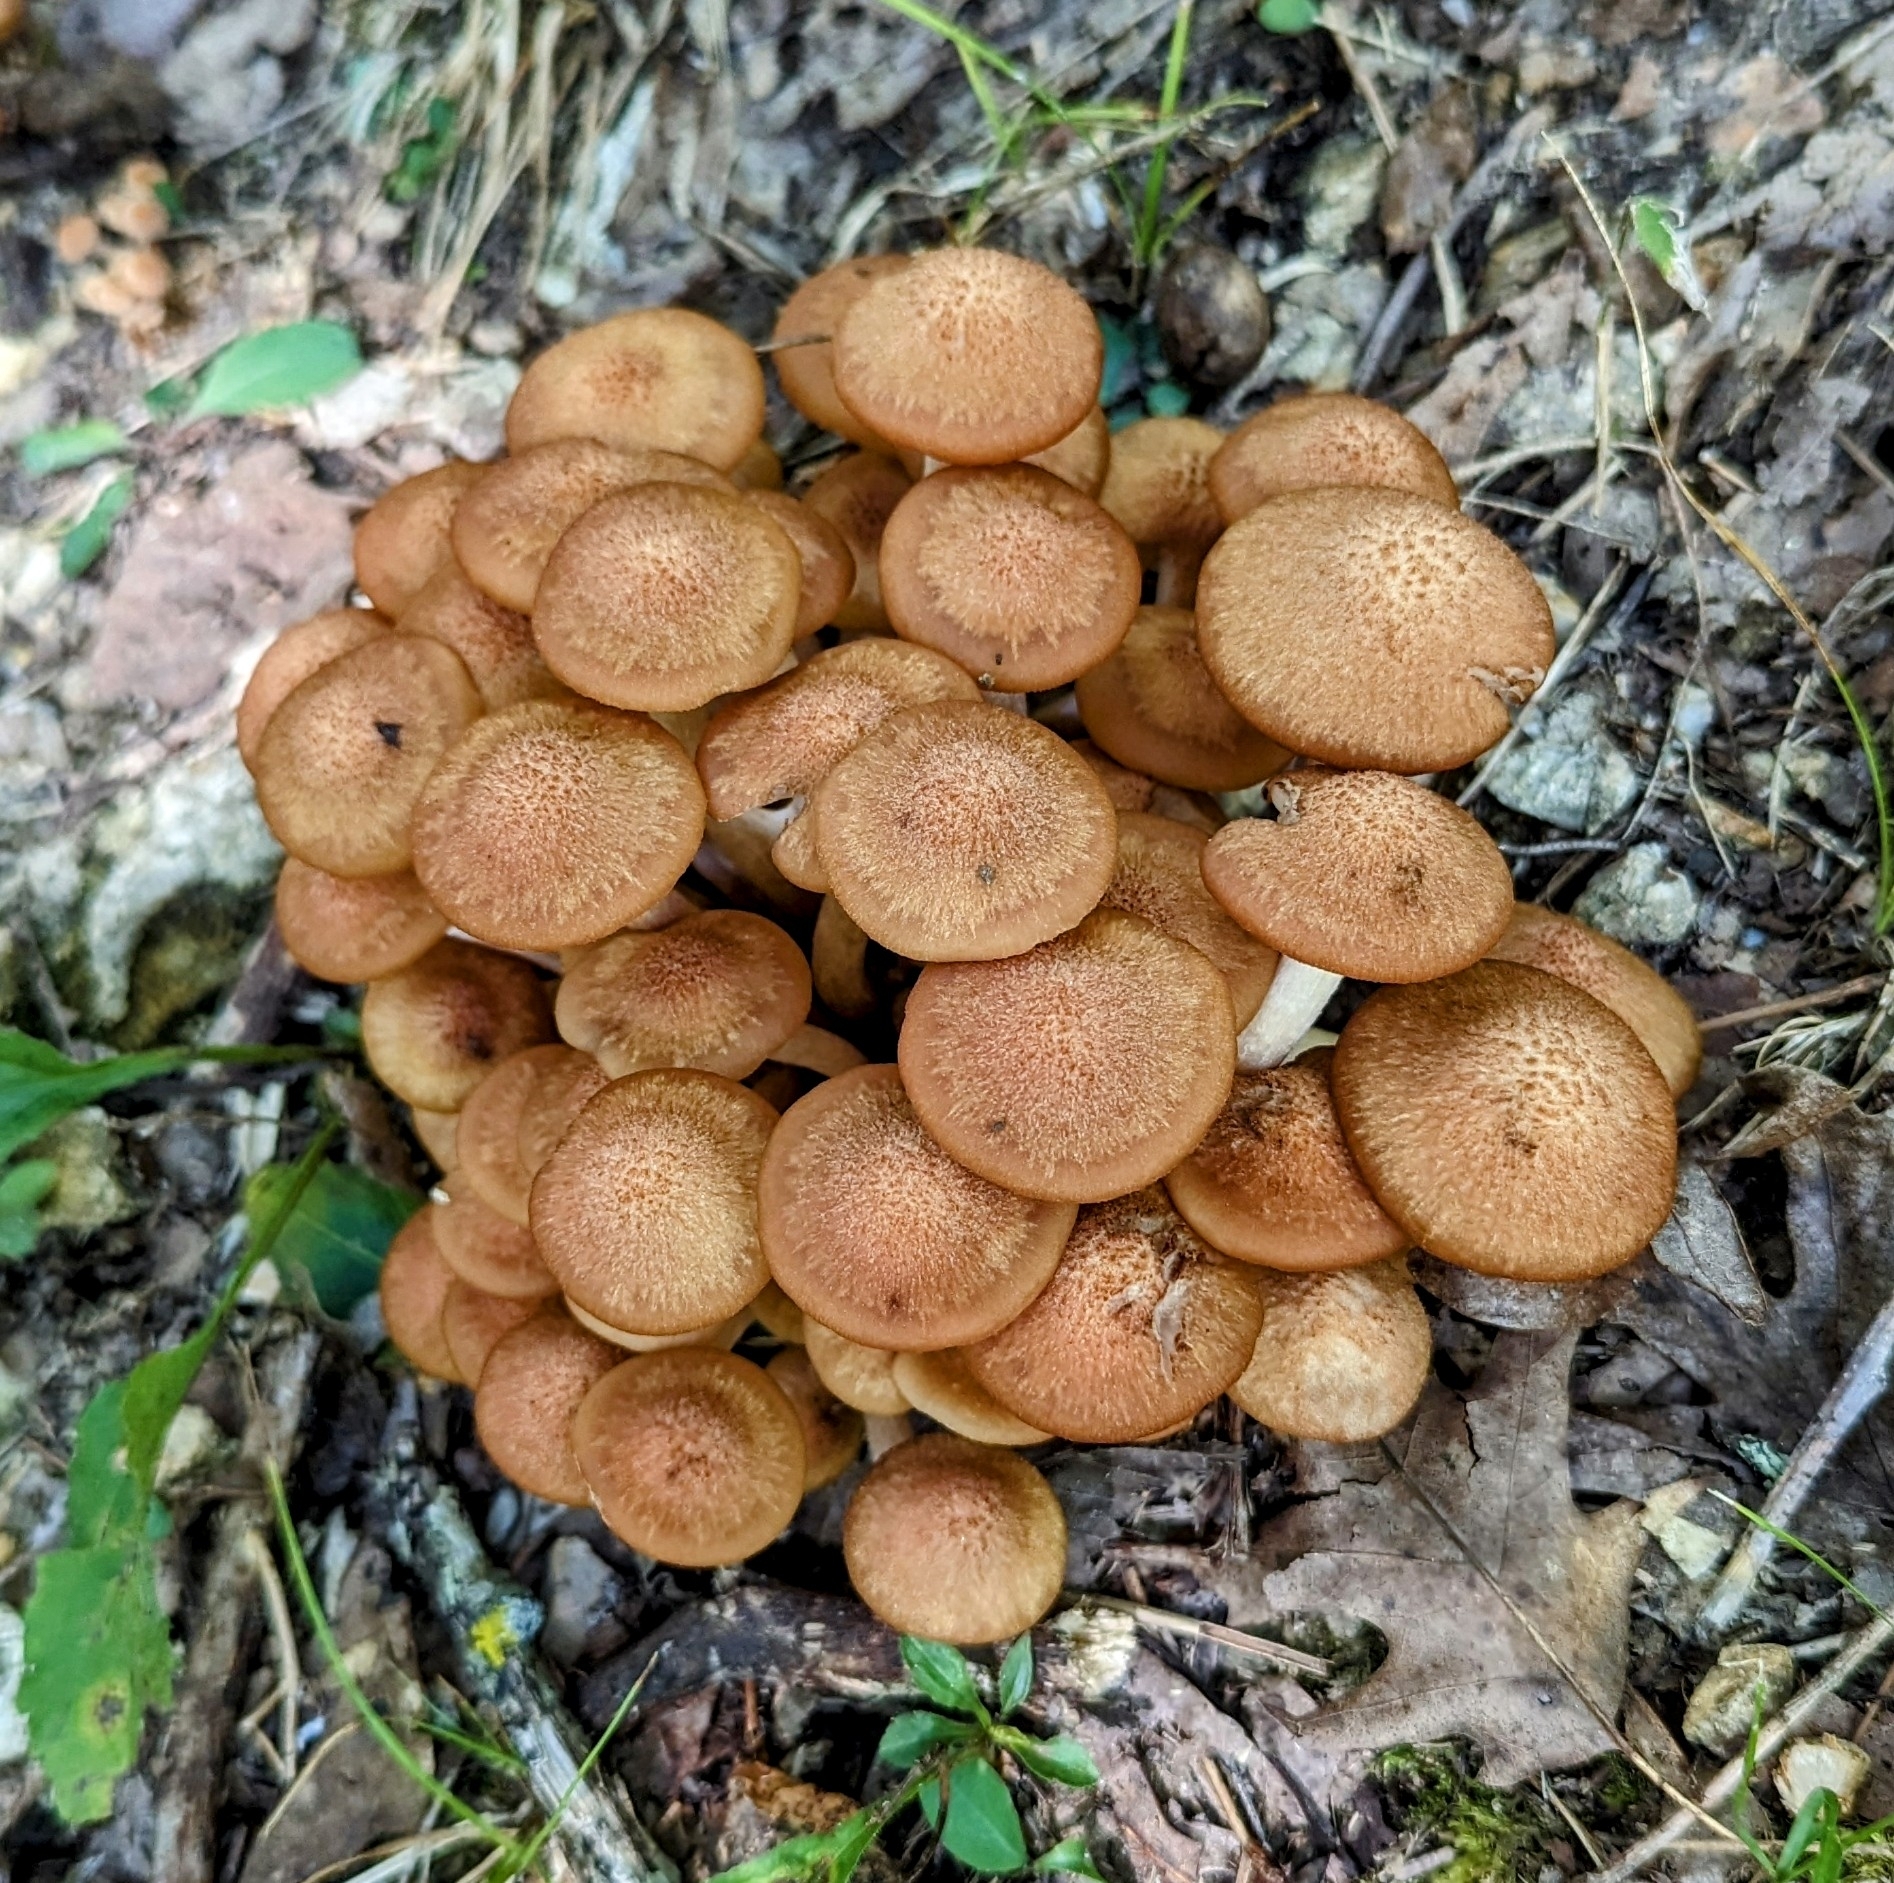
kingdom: Fungi
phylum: Basidiomycota
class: Agaricomycetes
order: Agaricales
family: Physalacriaceae
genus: Desarmillaria
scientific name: Desarmillaria caespitosa
